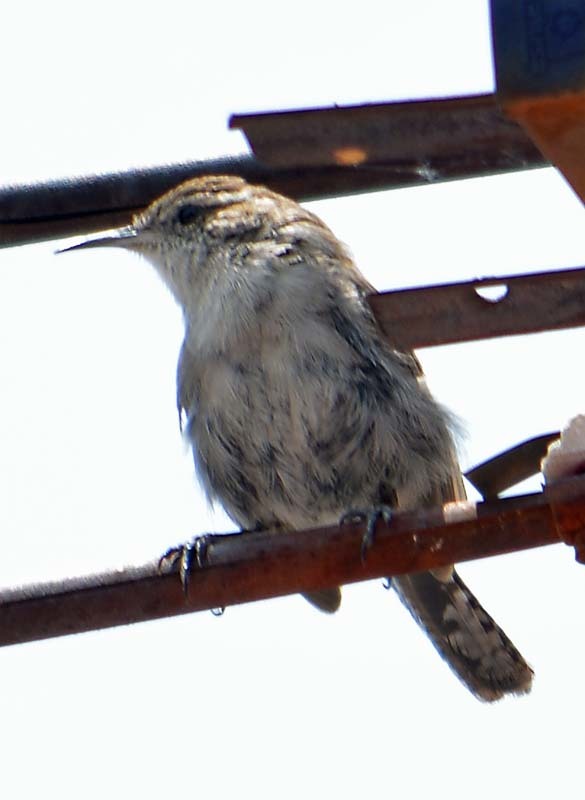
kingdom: Animalia
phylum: Chordata
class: Aves
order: Passeriformes
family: Troglodytidae
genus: Thryomanes
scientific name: Thryomanes bewickii
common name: Bewick's wren
